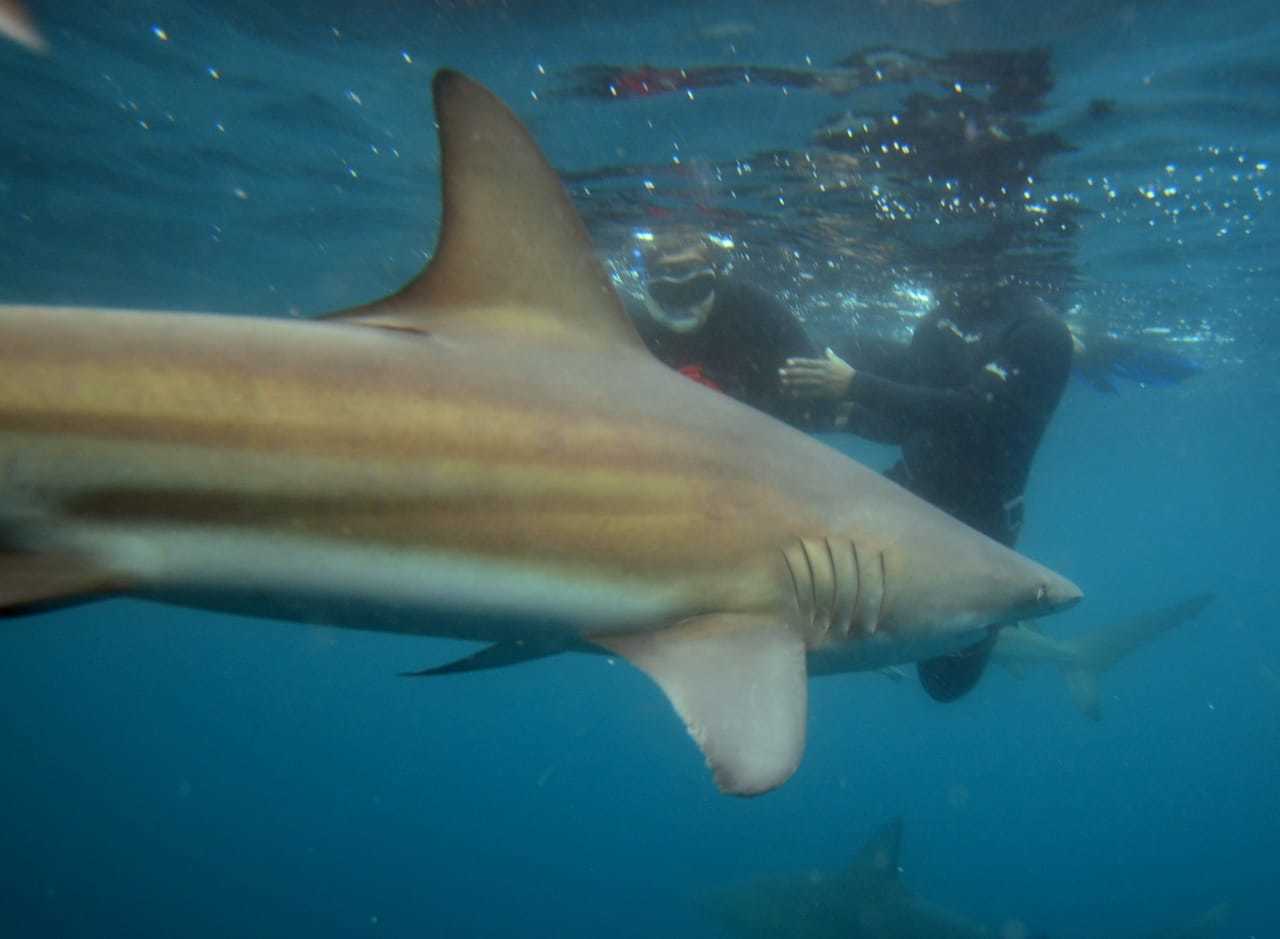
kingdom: Animalia
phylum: Chordata
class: Elasmobranchii
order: Carcharhiniformes
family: Carcharhinidae
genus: Carcharhinus
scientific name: Carcharhinus limbatus
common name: Blacktip shark
